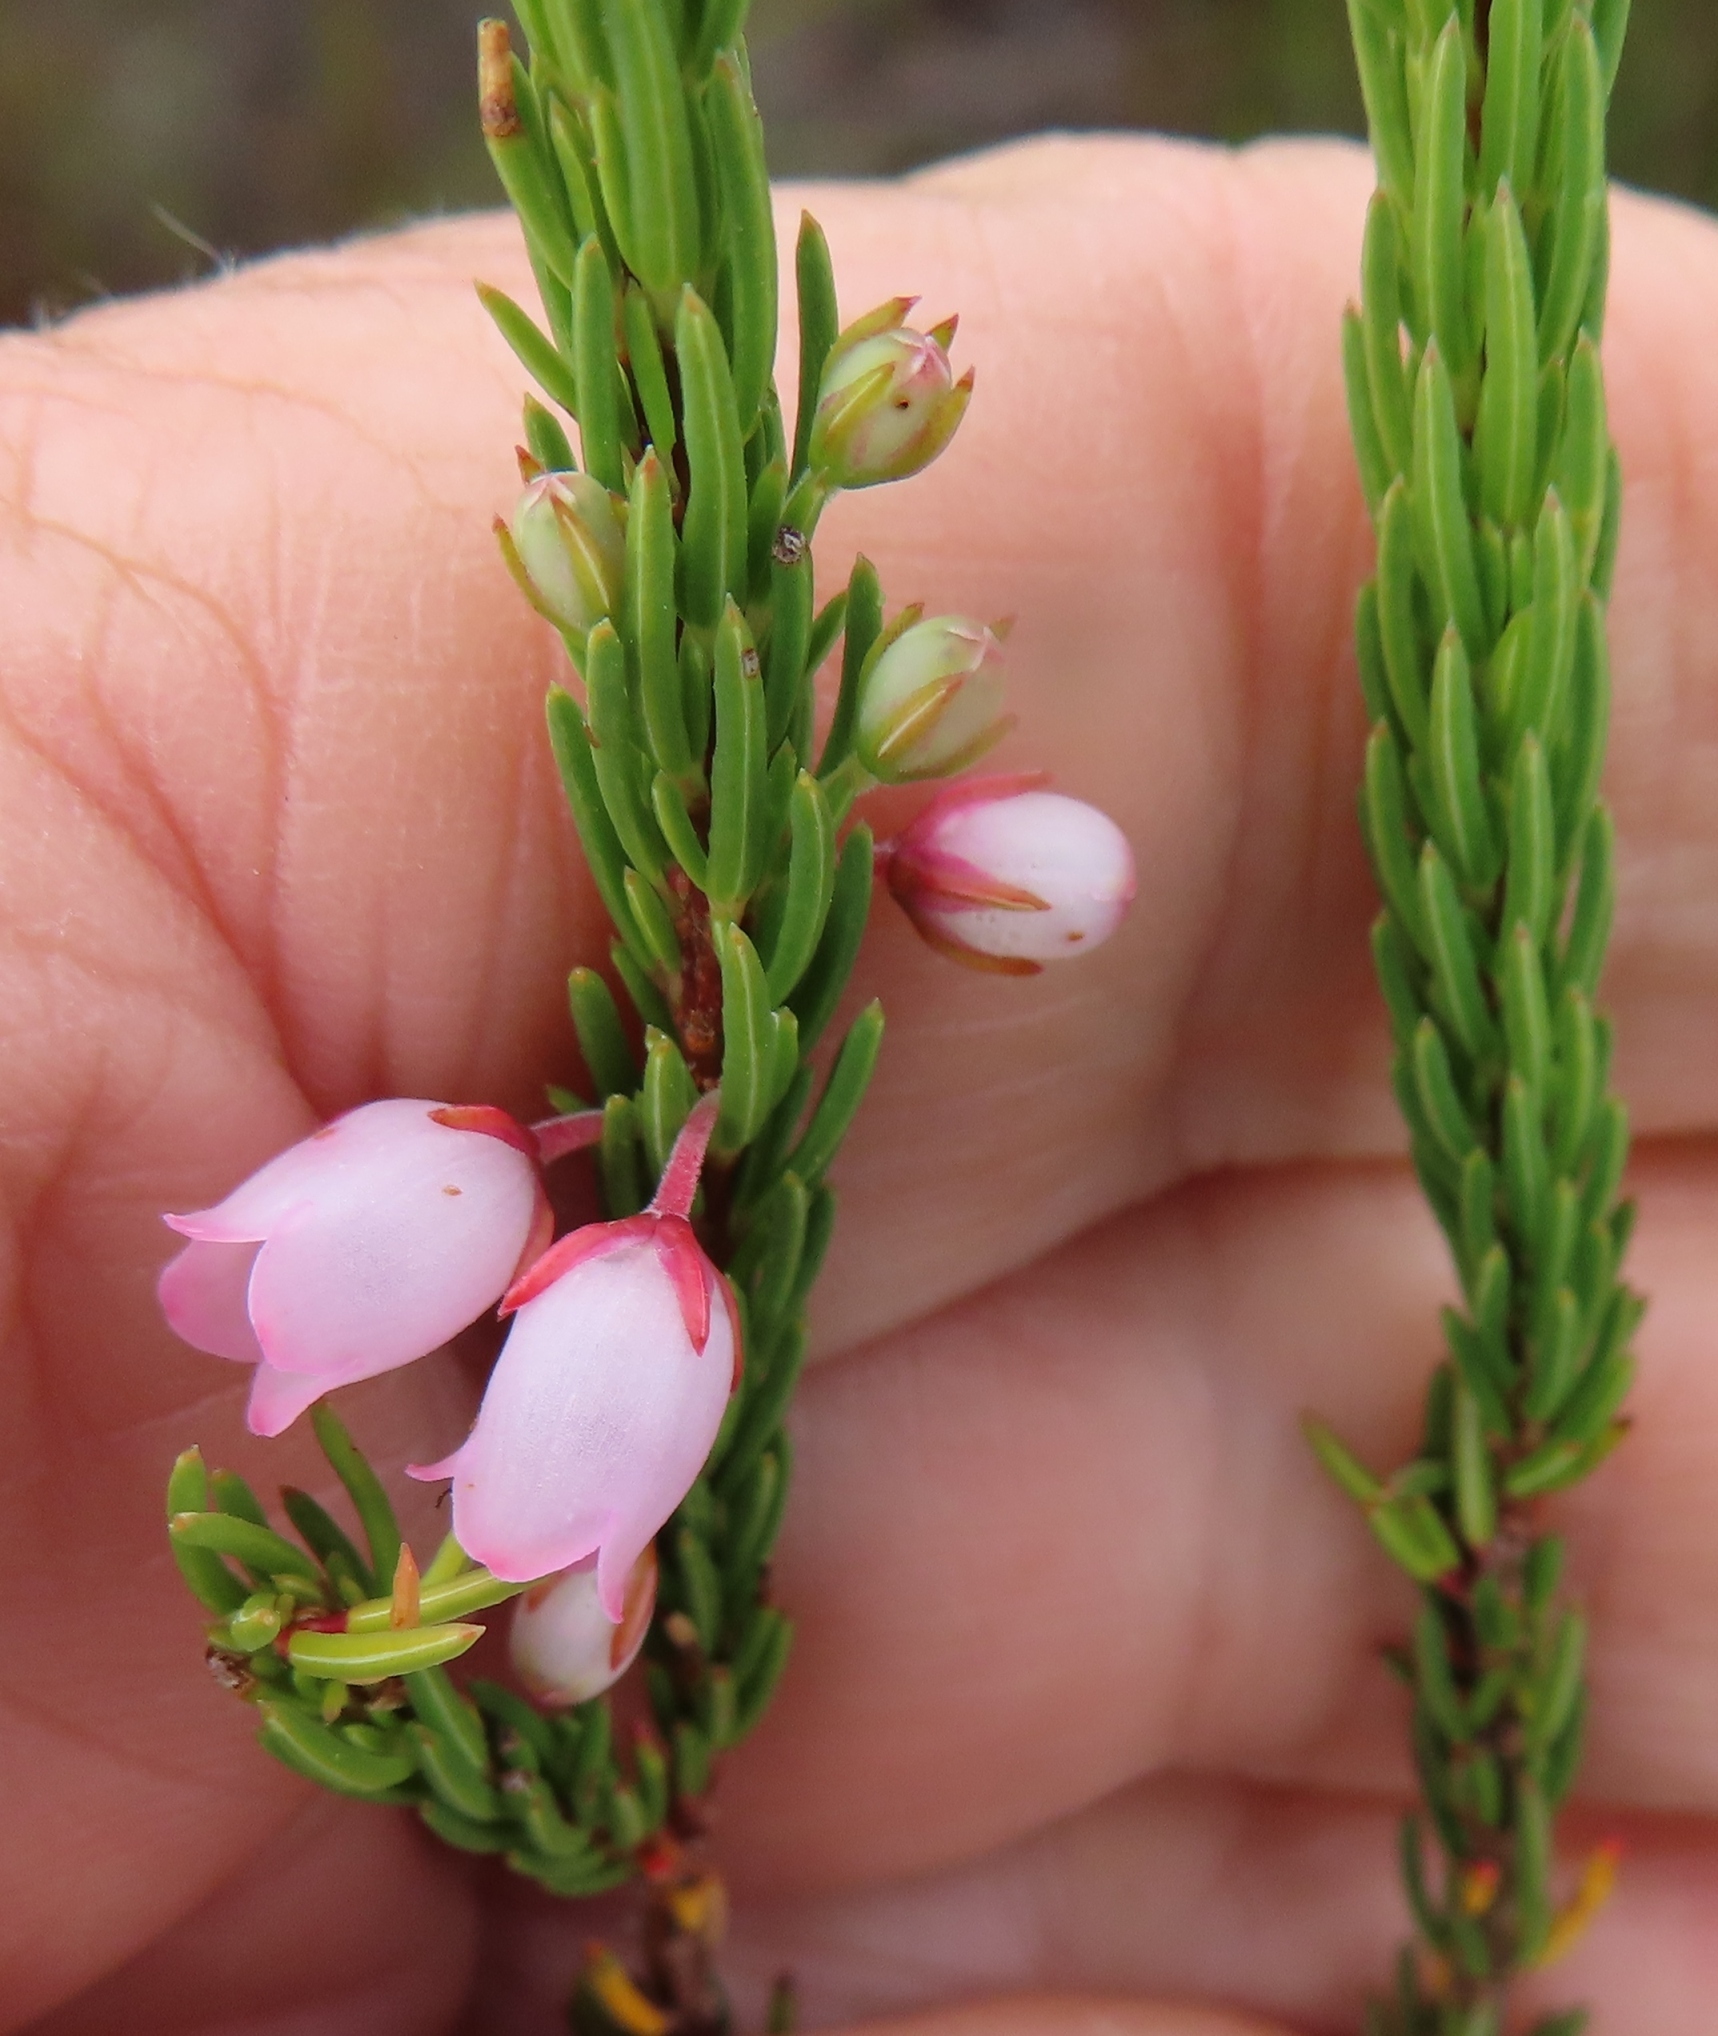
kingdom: Plantae
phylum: Tracheophyta
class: Magnoliopsida
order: Ericales
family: Ericaceae
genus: Erica
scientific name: Erica globulifera
